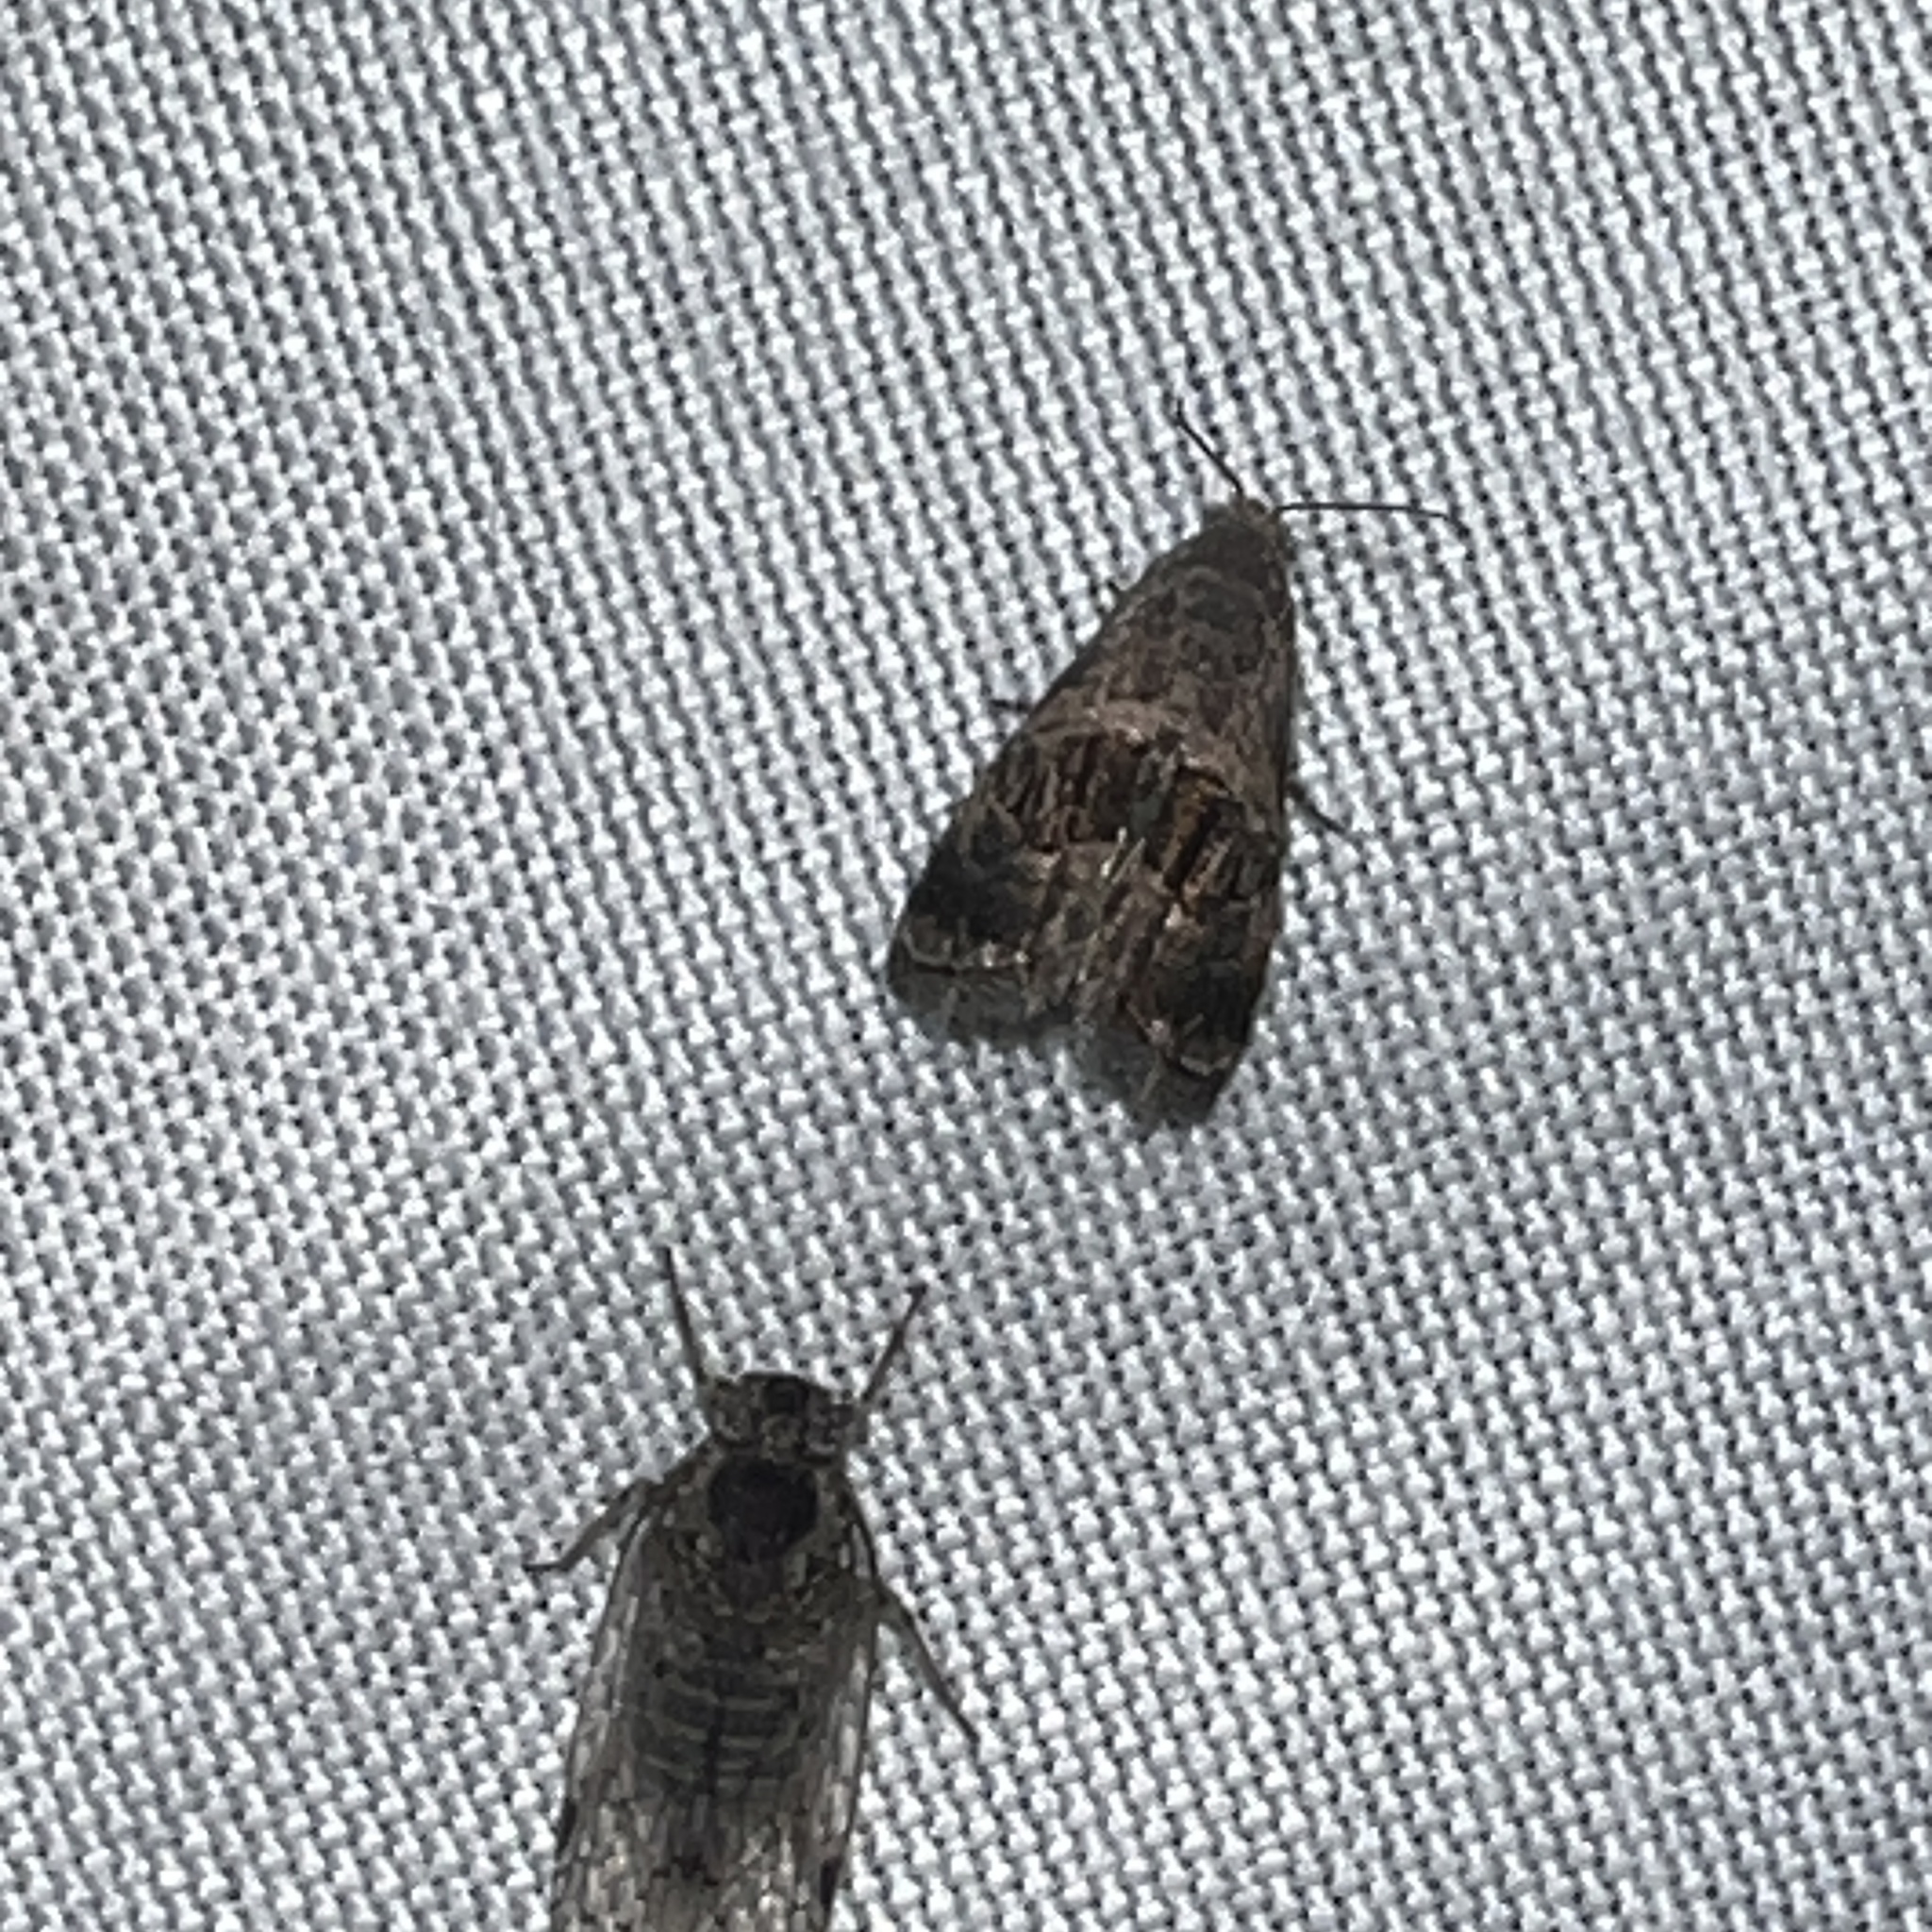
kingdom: Animalia
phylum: Arthropoda
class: Insecta
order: Lepidoptera
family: Noctuidae
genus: Tripudia
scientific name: Tripudia quadrifera
